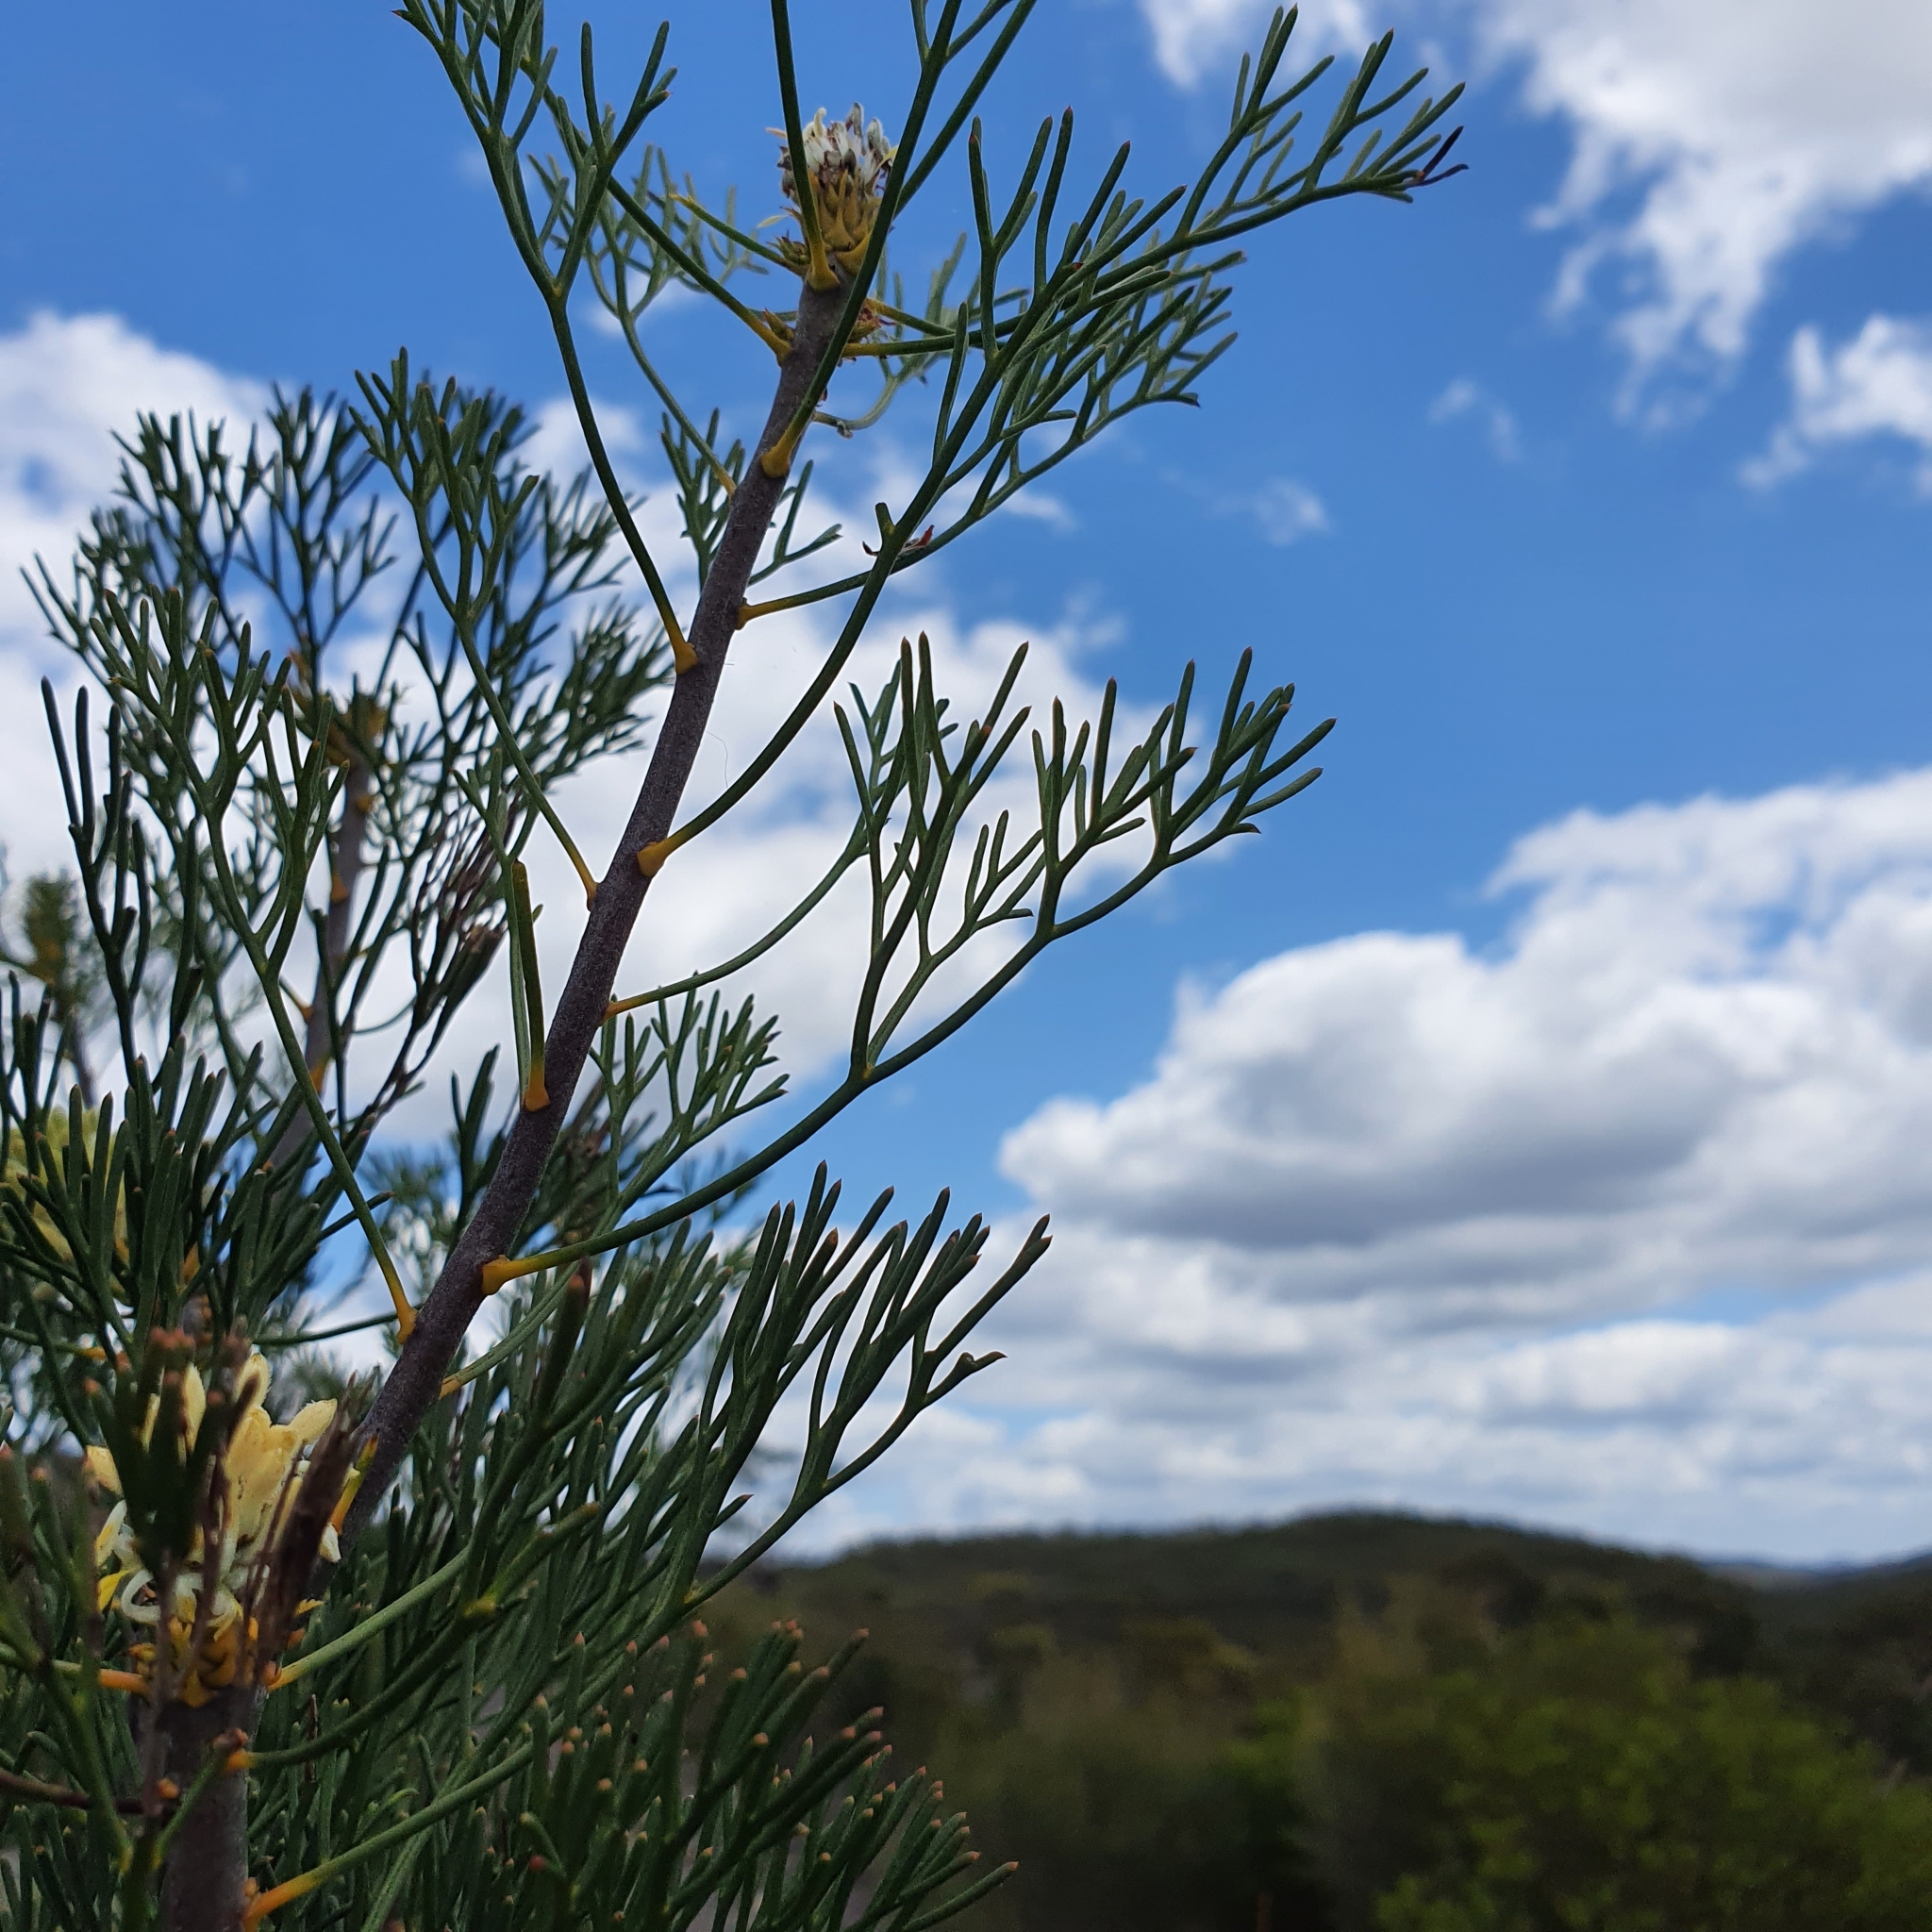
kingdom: Plantae
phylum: Tracheophyta
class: Magnoliopsida
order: Proteales
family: Proteaceae
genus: Petrophile
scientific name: Petrophile pulchella
